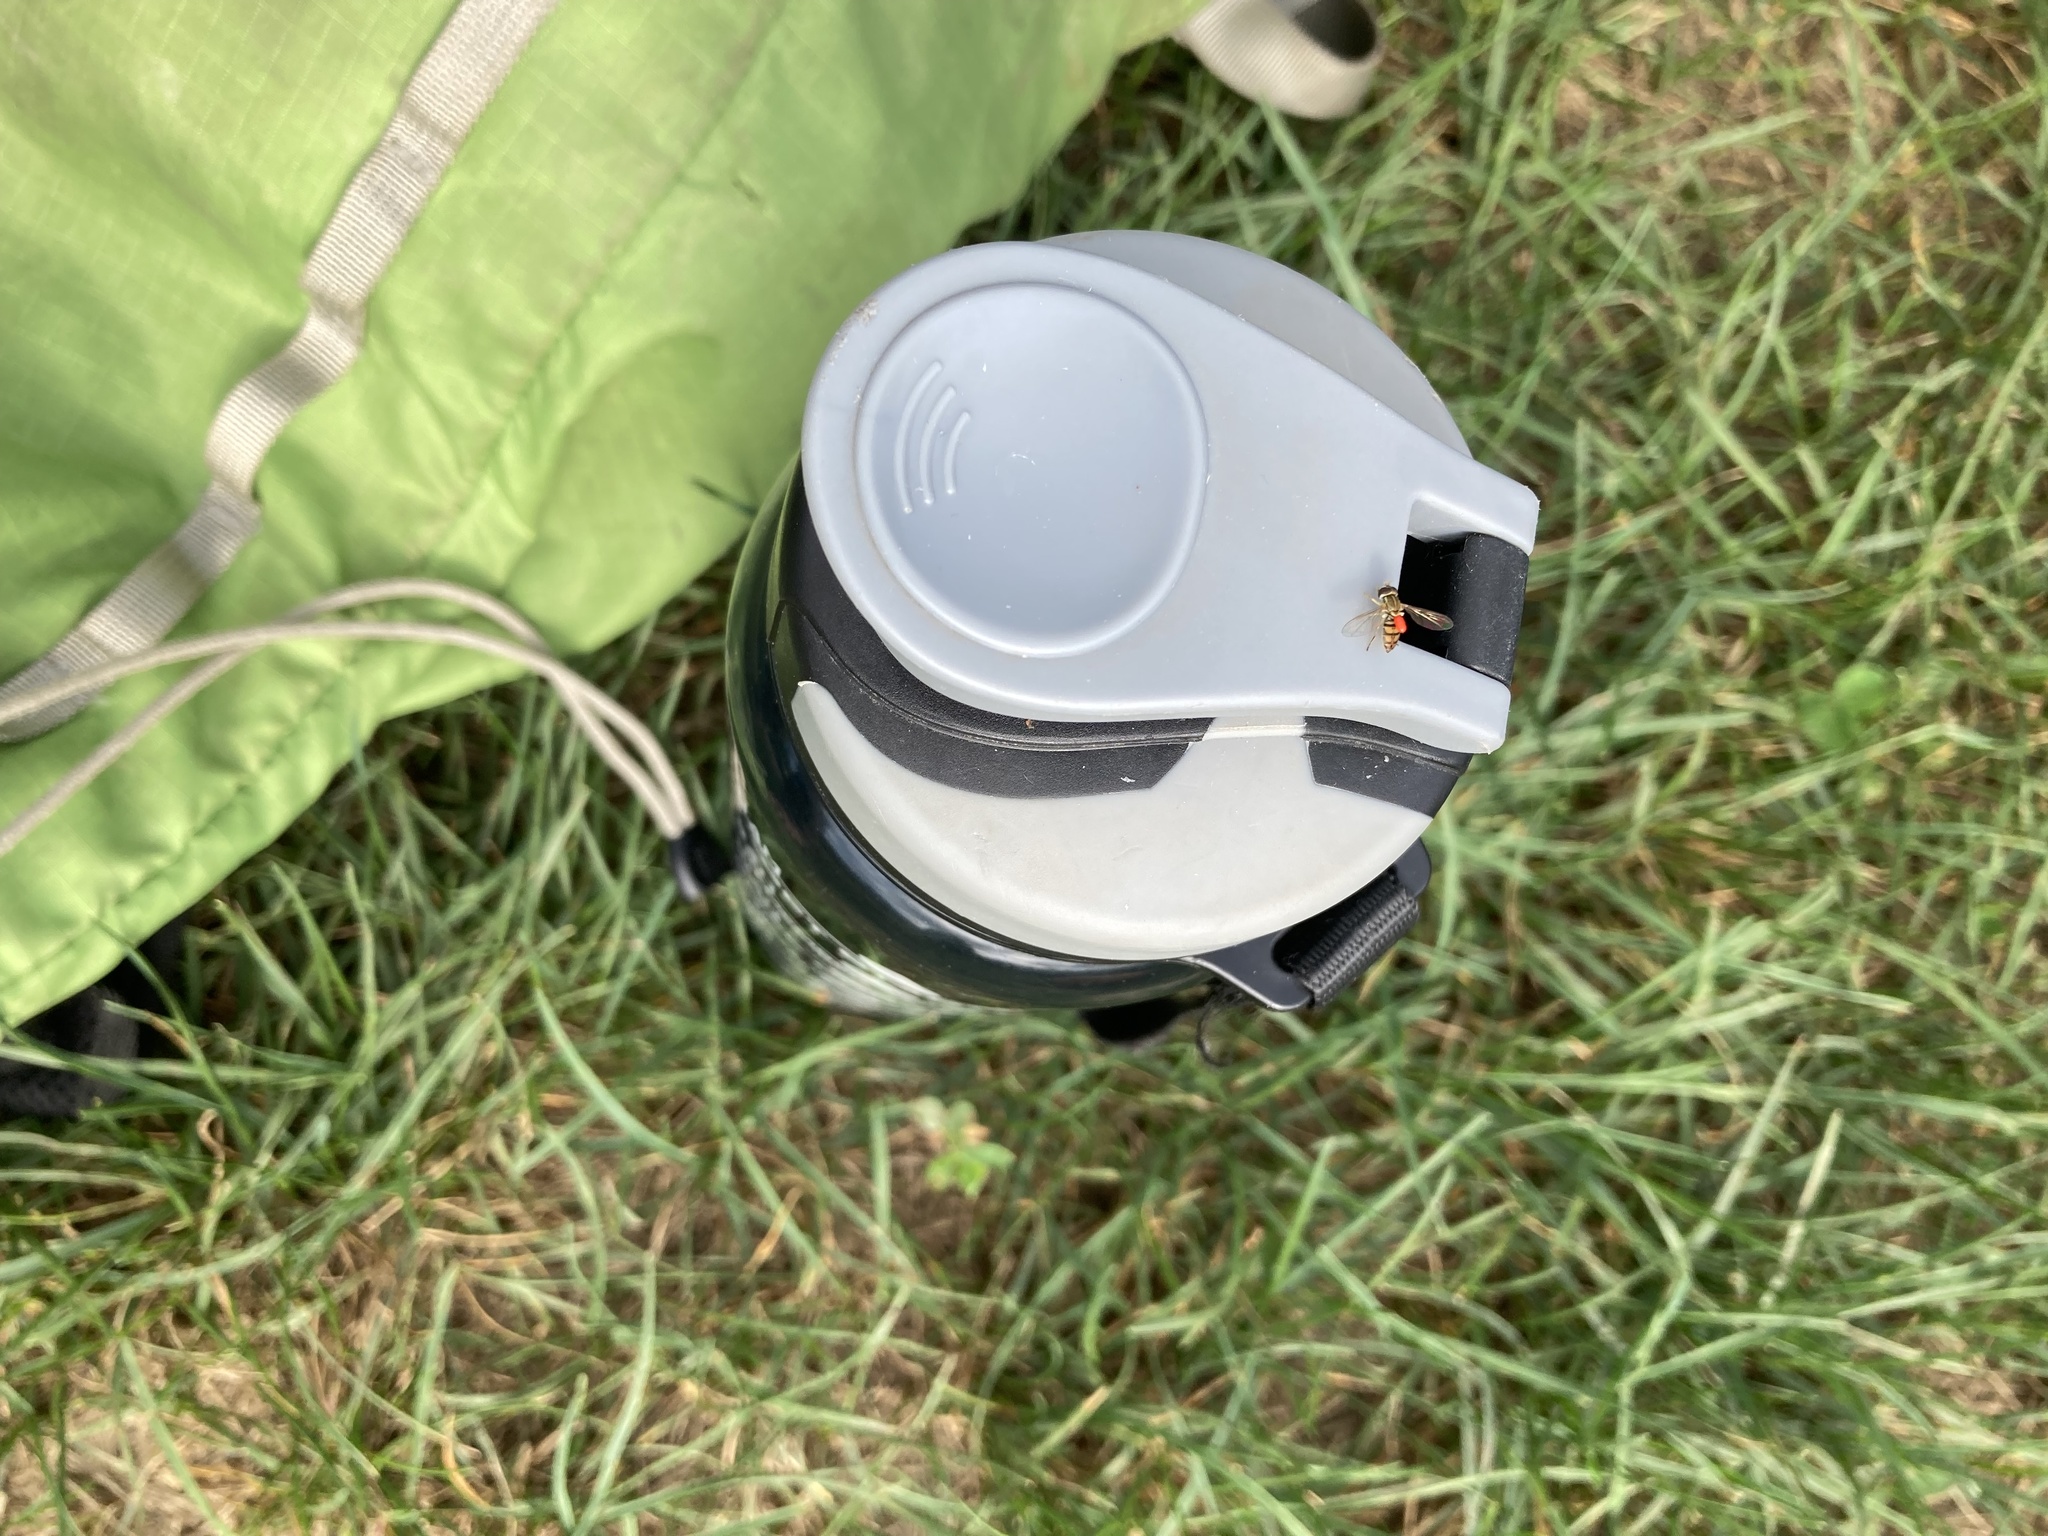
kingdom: Animalia
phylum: Arthropoda
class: Insecta
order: Diptera
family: Syrphidae
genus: Toxomerus
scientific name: Toxomerus marginatus
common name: Syrphid fly
